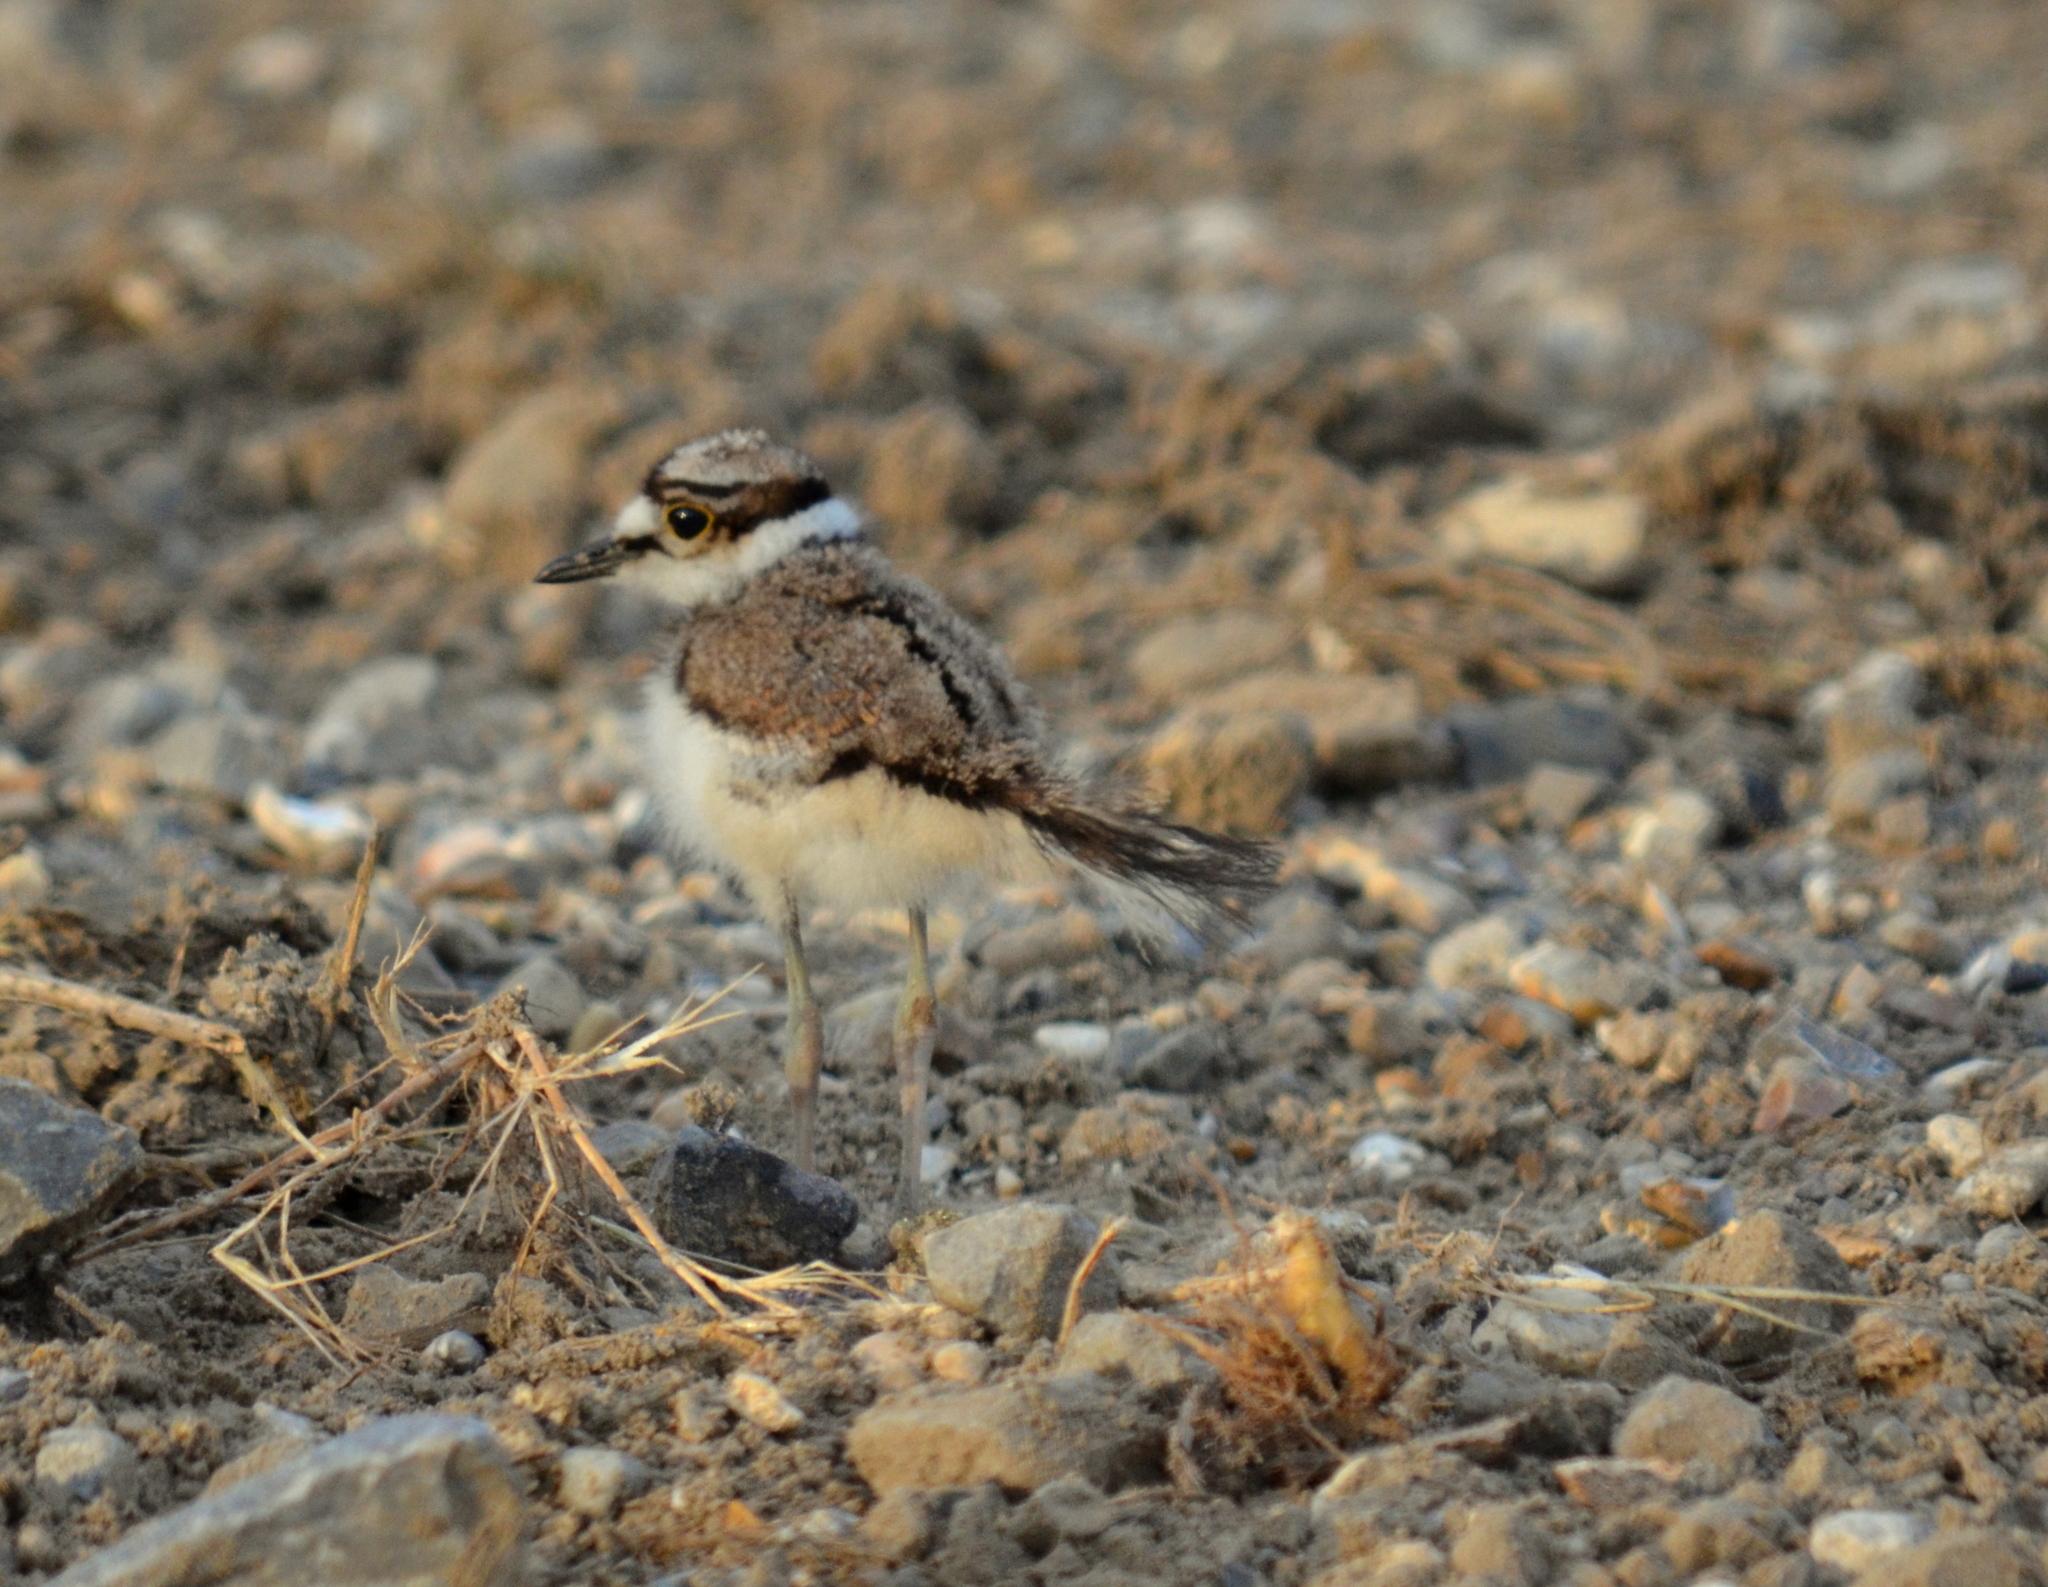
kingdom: Animalia
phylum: Chordata
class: Aves
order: Charadriiformes
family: Charadriidae
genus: Charadrius
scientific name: Charadrius vociferus
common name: Killdeer
